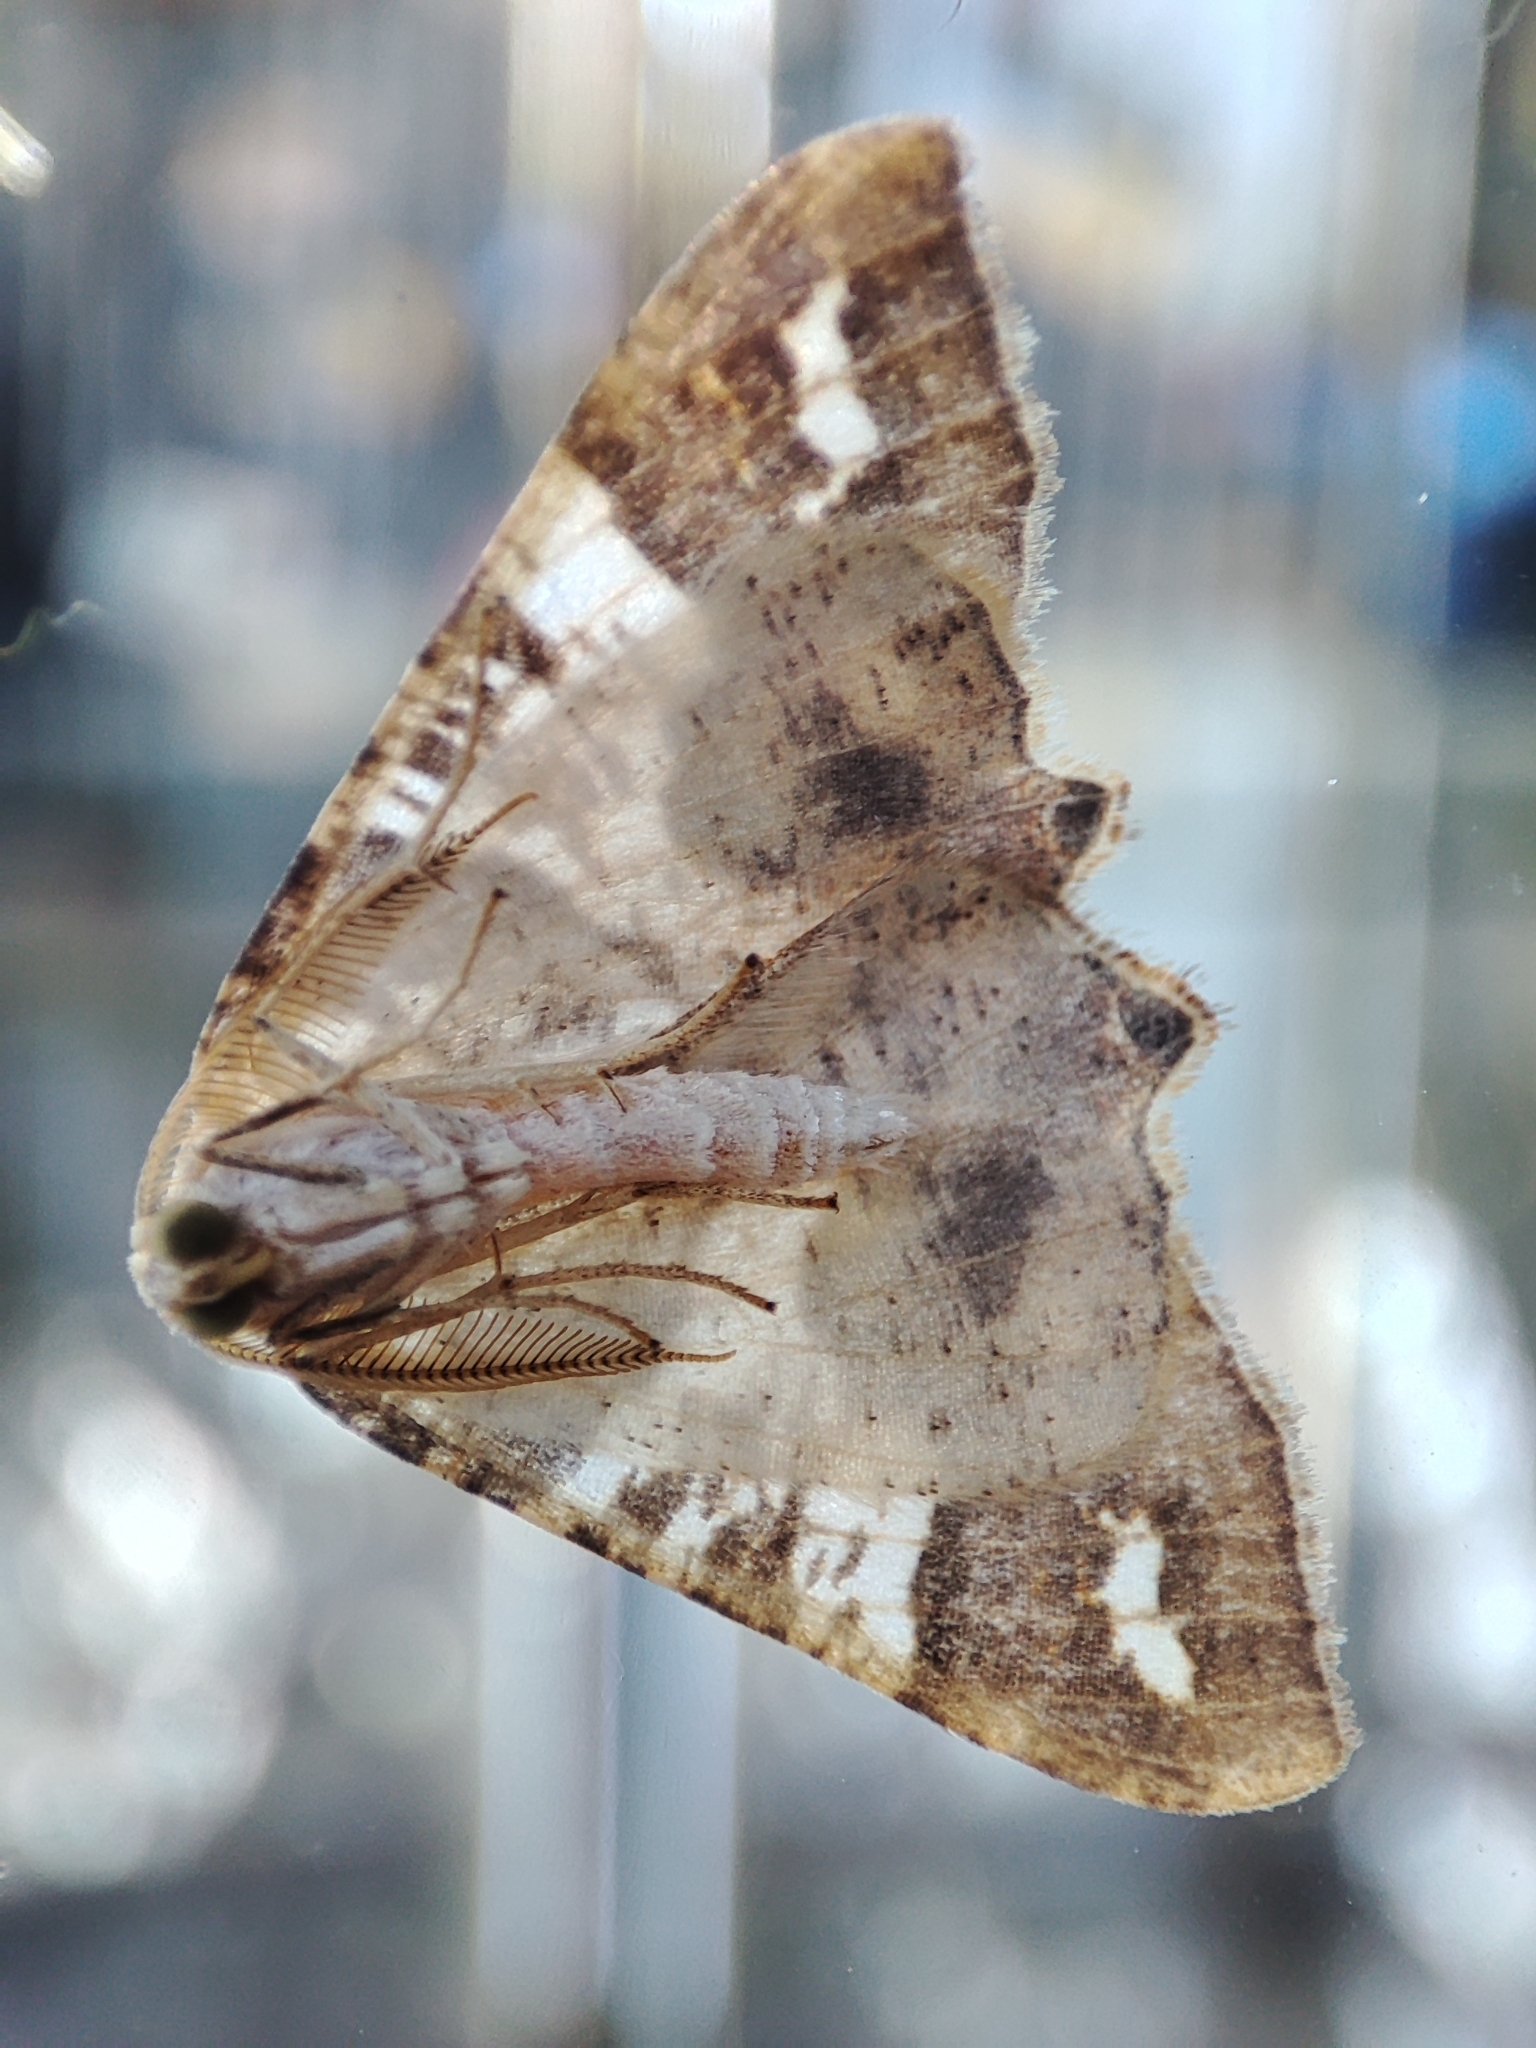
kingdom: Animalia
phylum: Arthropoda
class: Insecta
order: Lepidoptera
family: Geometridae
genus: Rindgeria
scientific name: Rindgeria ornata
